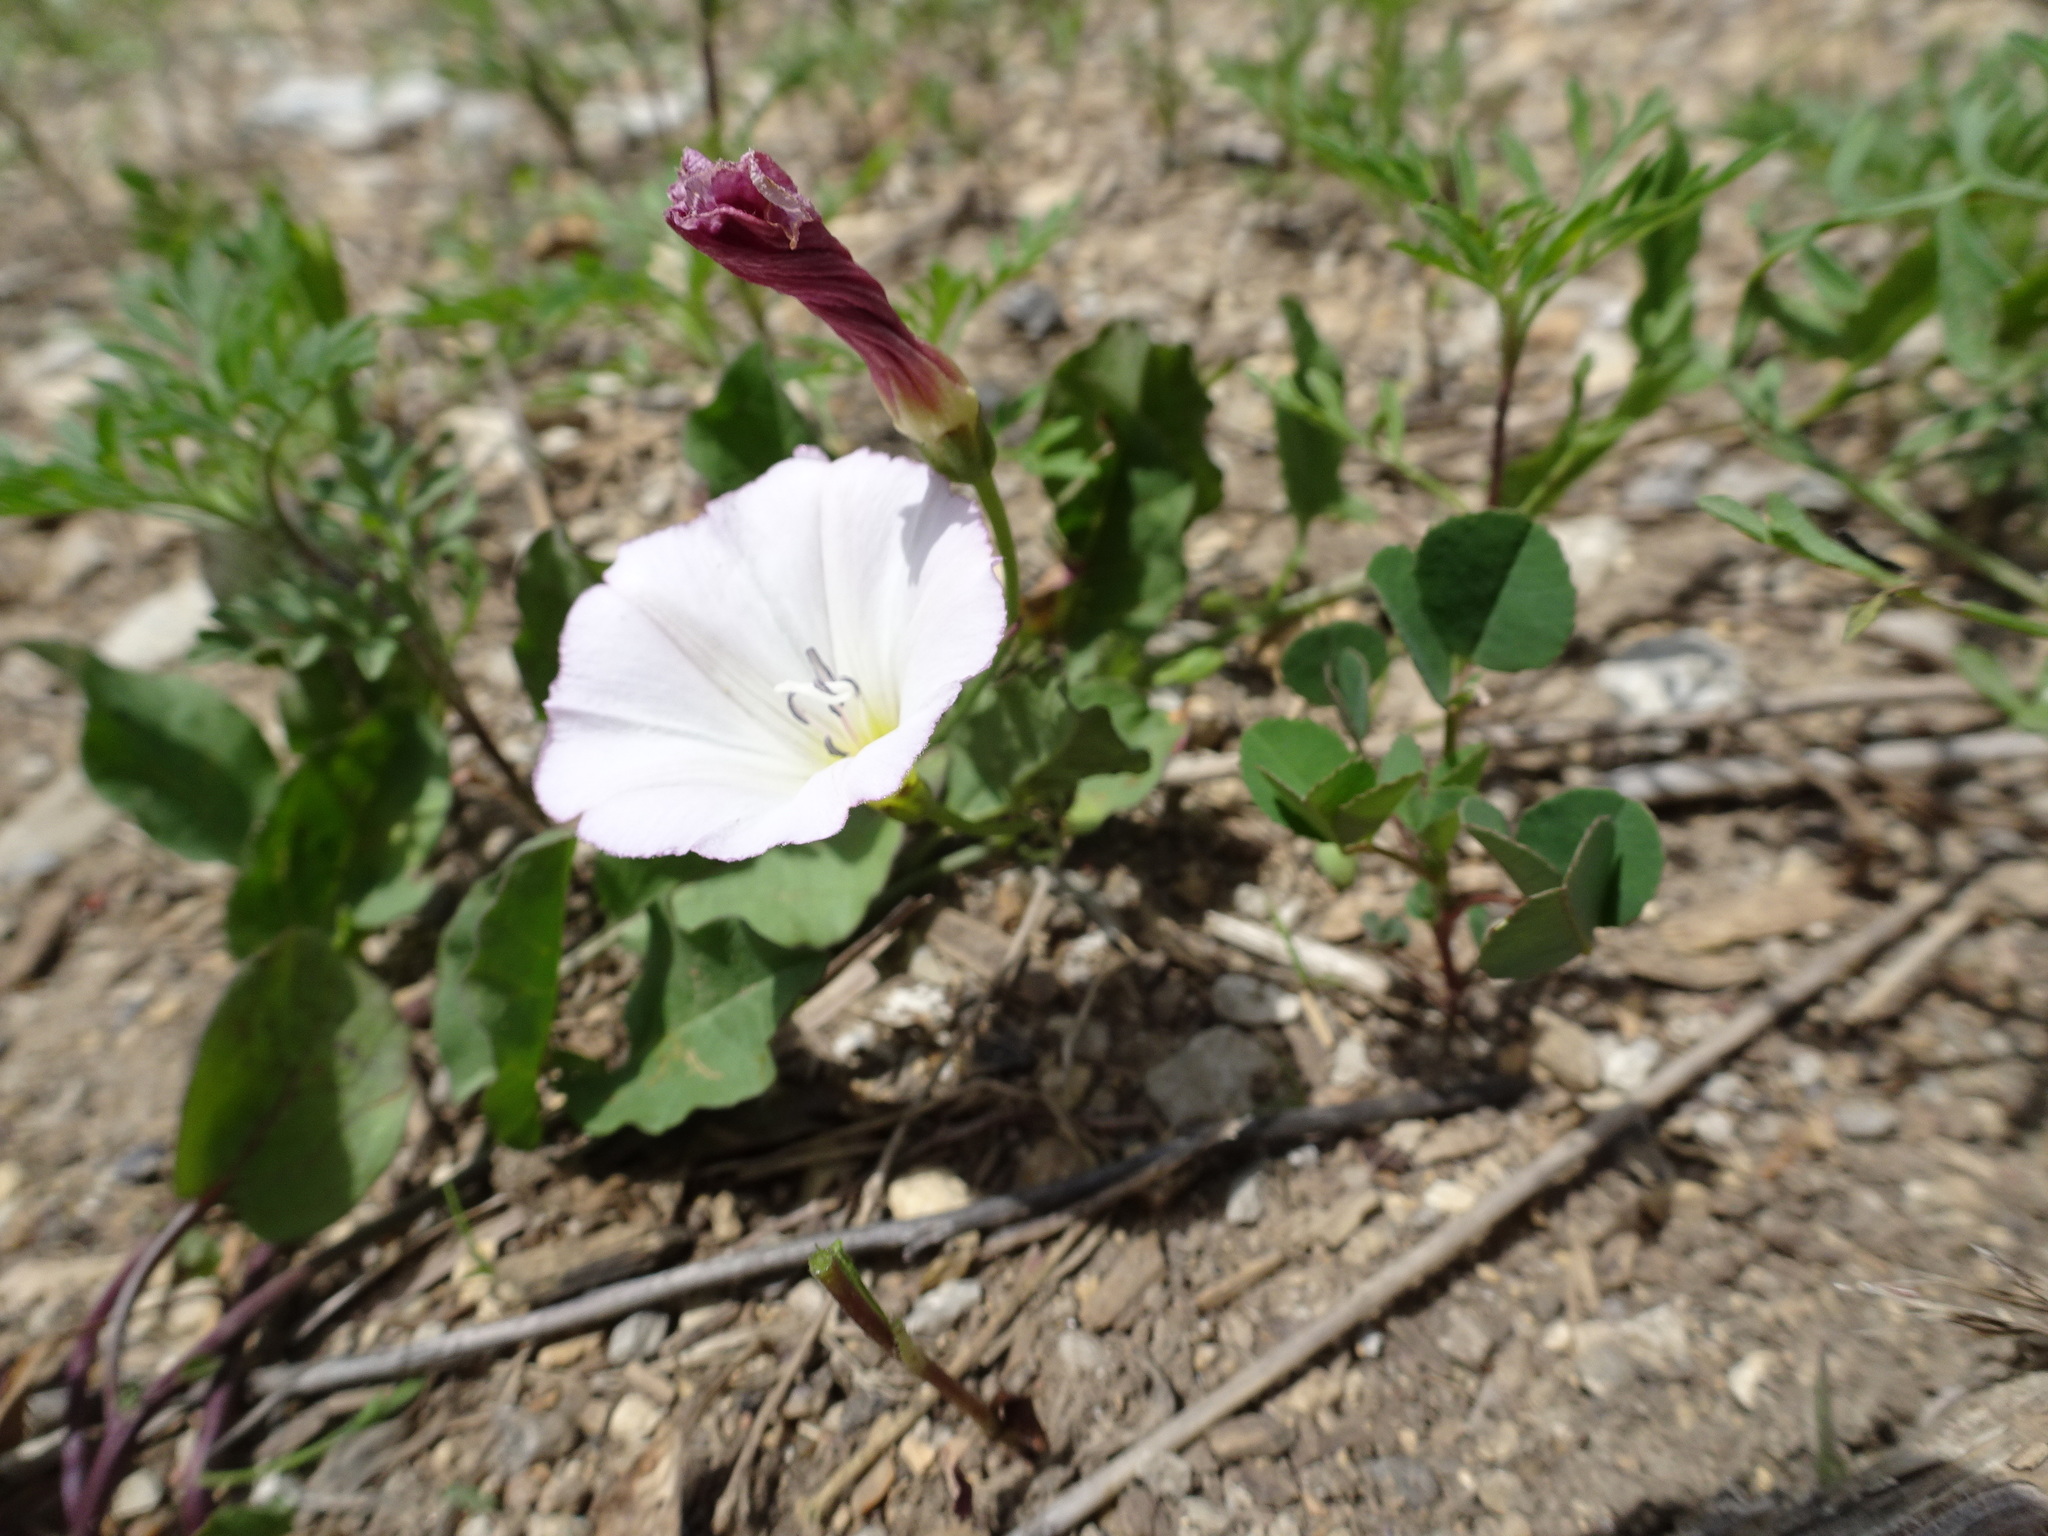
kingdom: Plantae
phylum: Tracheophyta
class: Magnoliopsida
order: Solanales
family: Convolvulaceae
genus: Convolvulus
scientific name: Convolvulus arvensis
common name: Field bindweed
